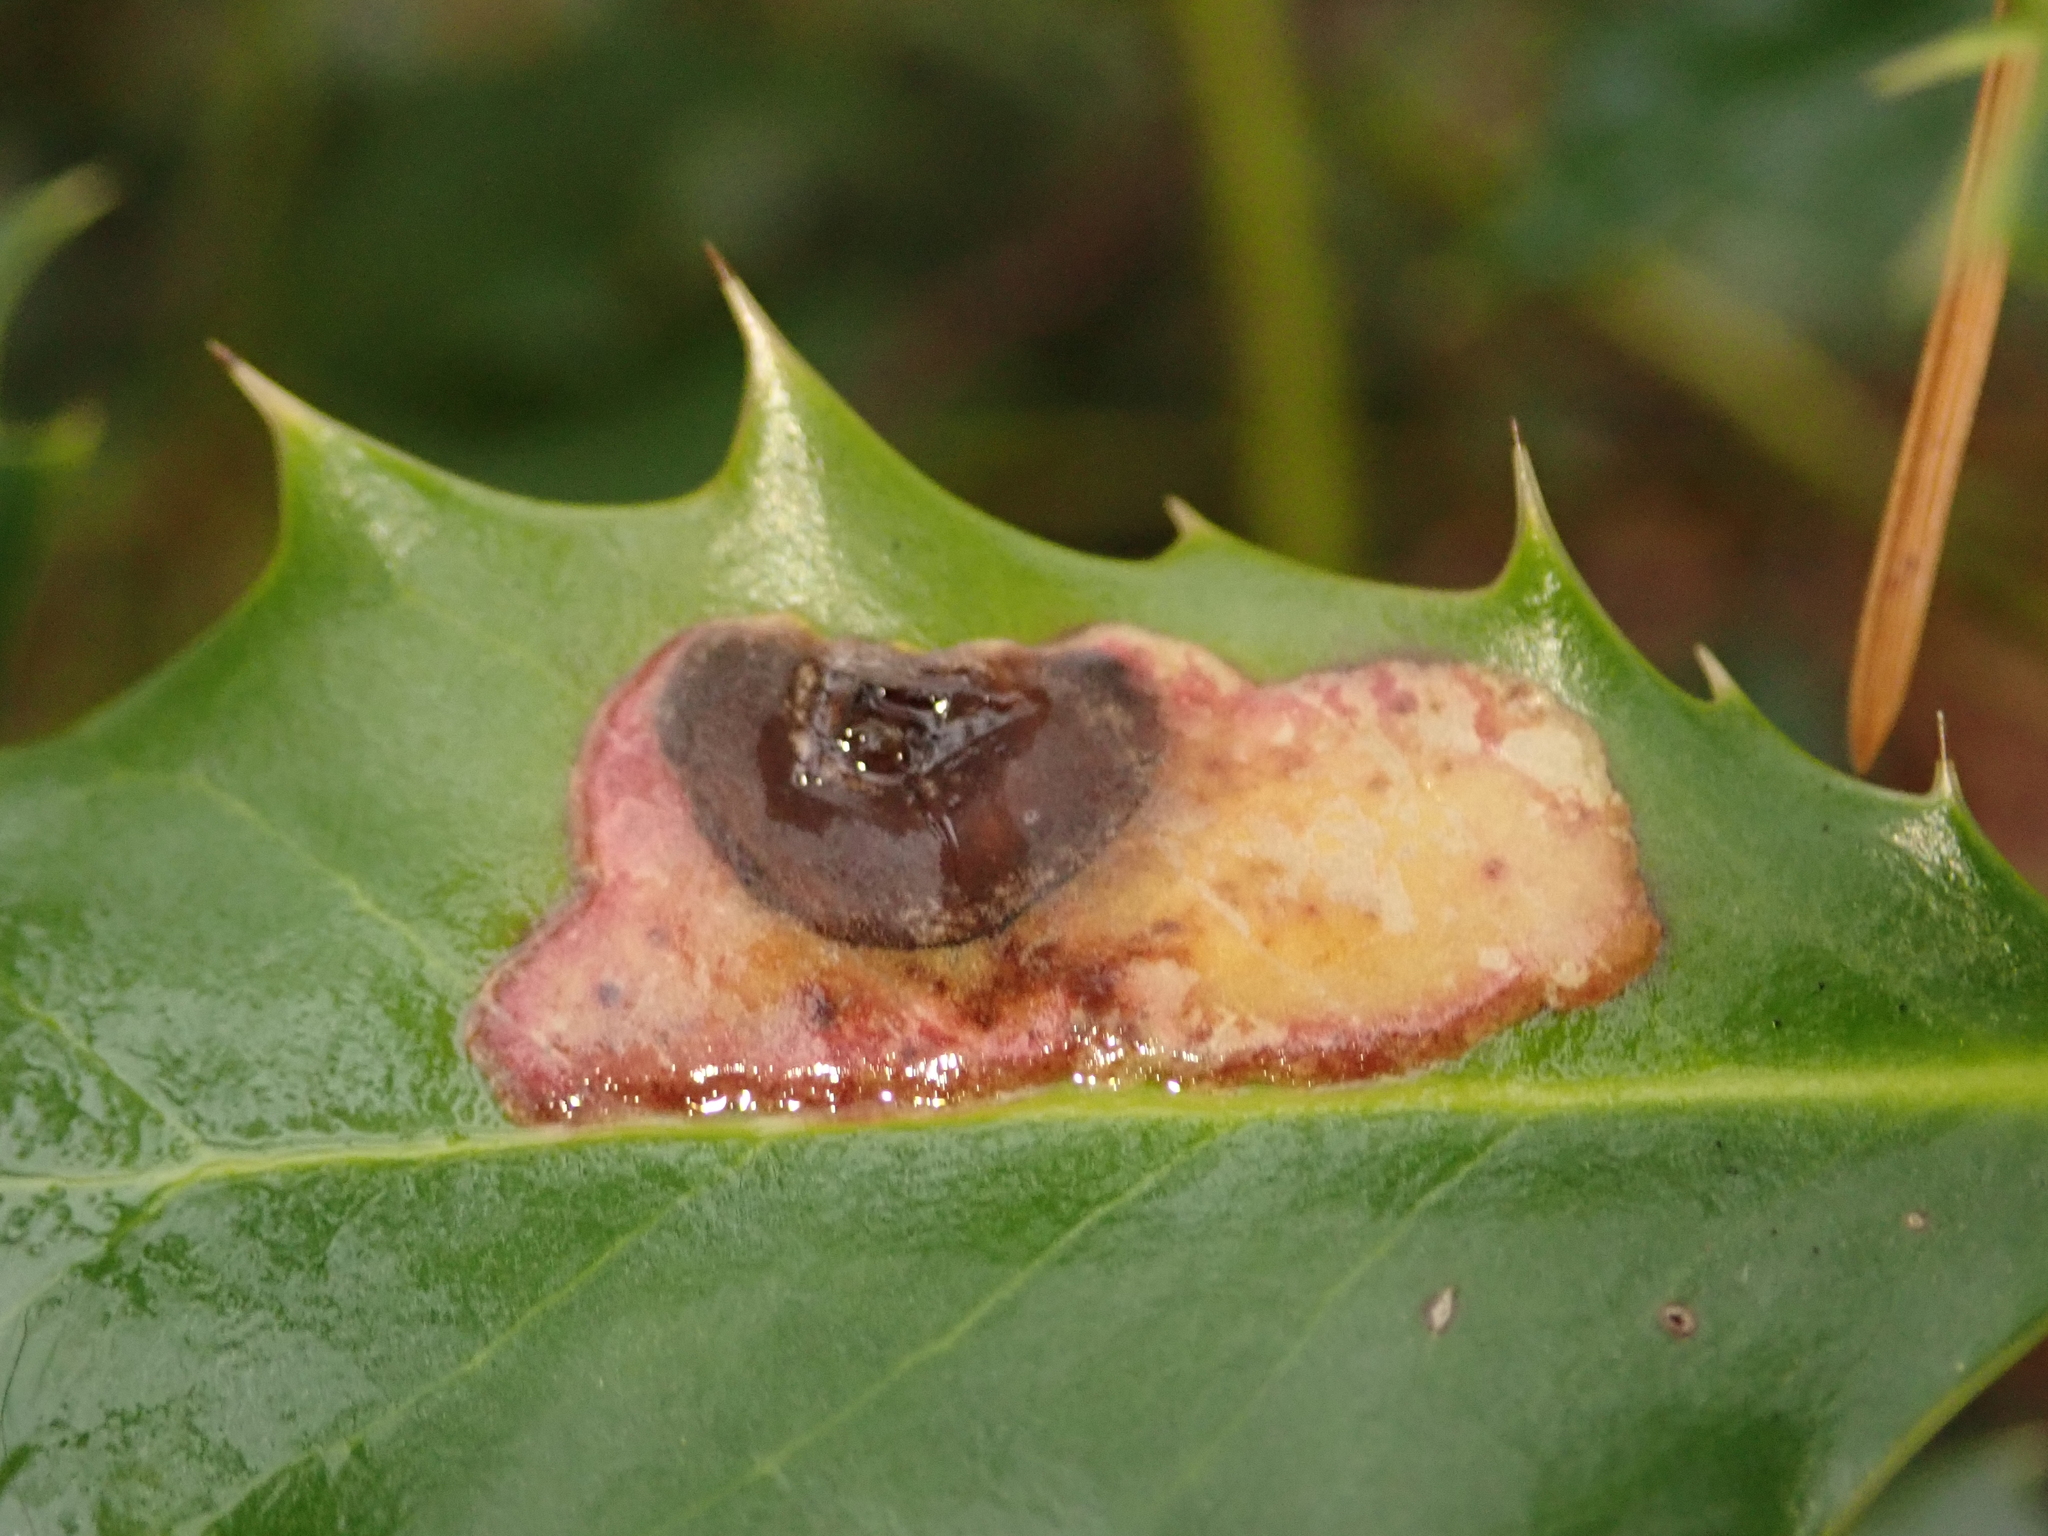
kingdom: Animalia
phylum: Arthropoda
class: Insecta
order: Diptera
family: Agromyzidae
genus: Phytomyza
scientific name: Phytomyza ilicis
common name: Holly leafminer
